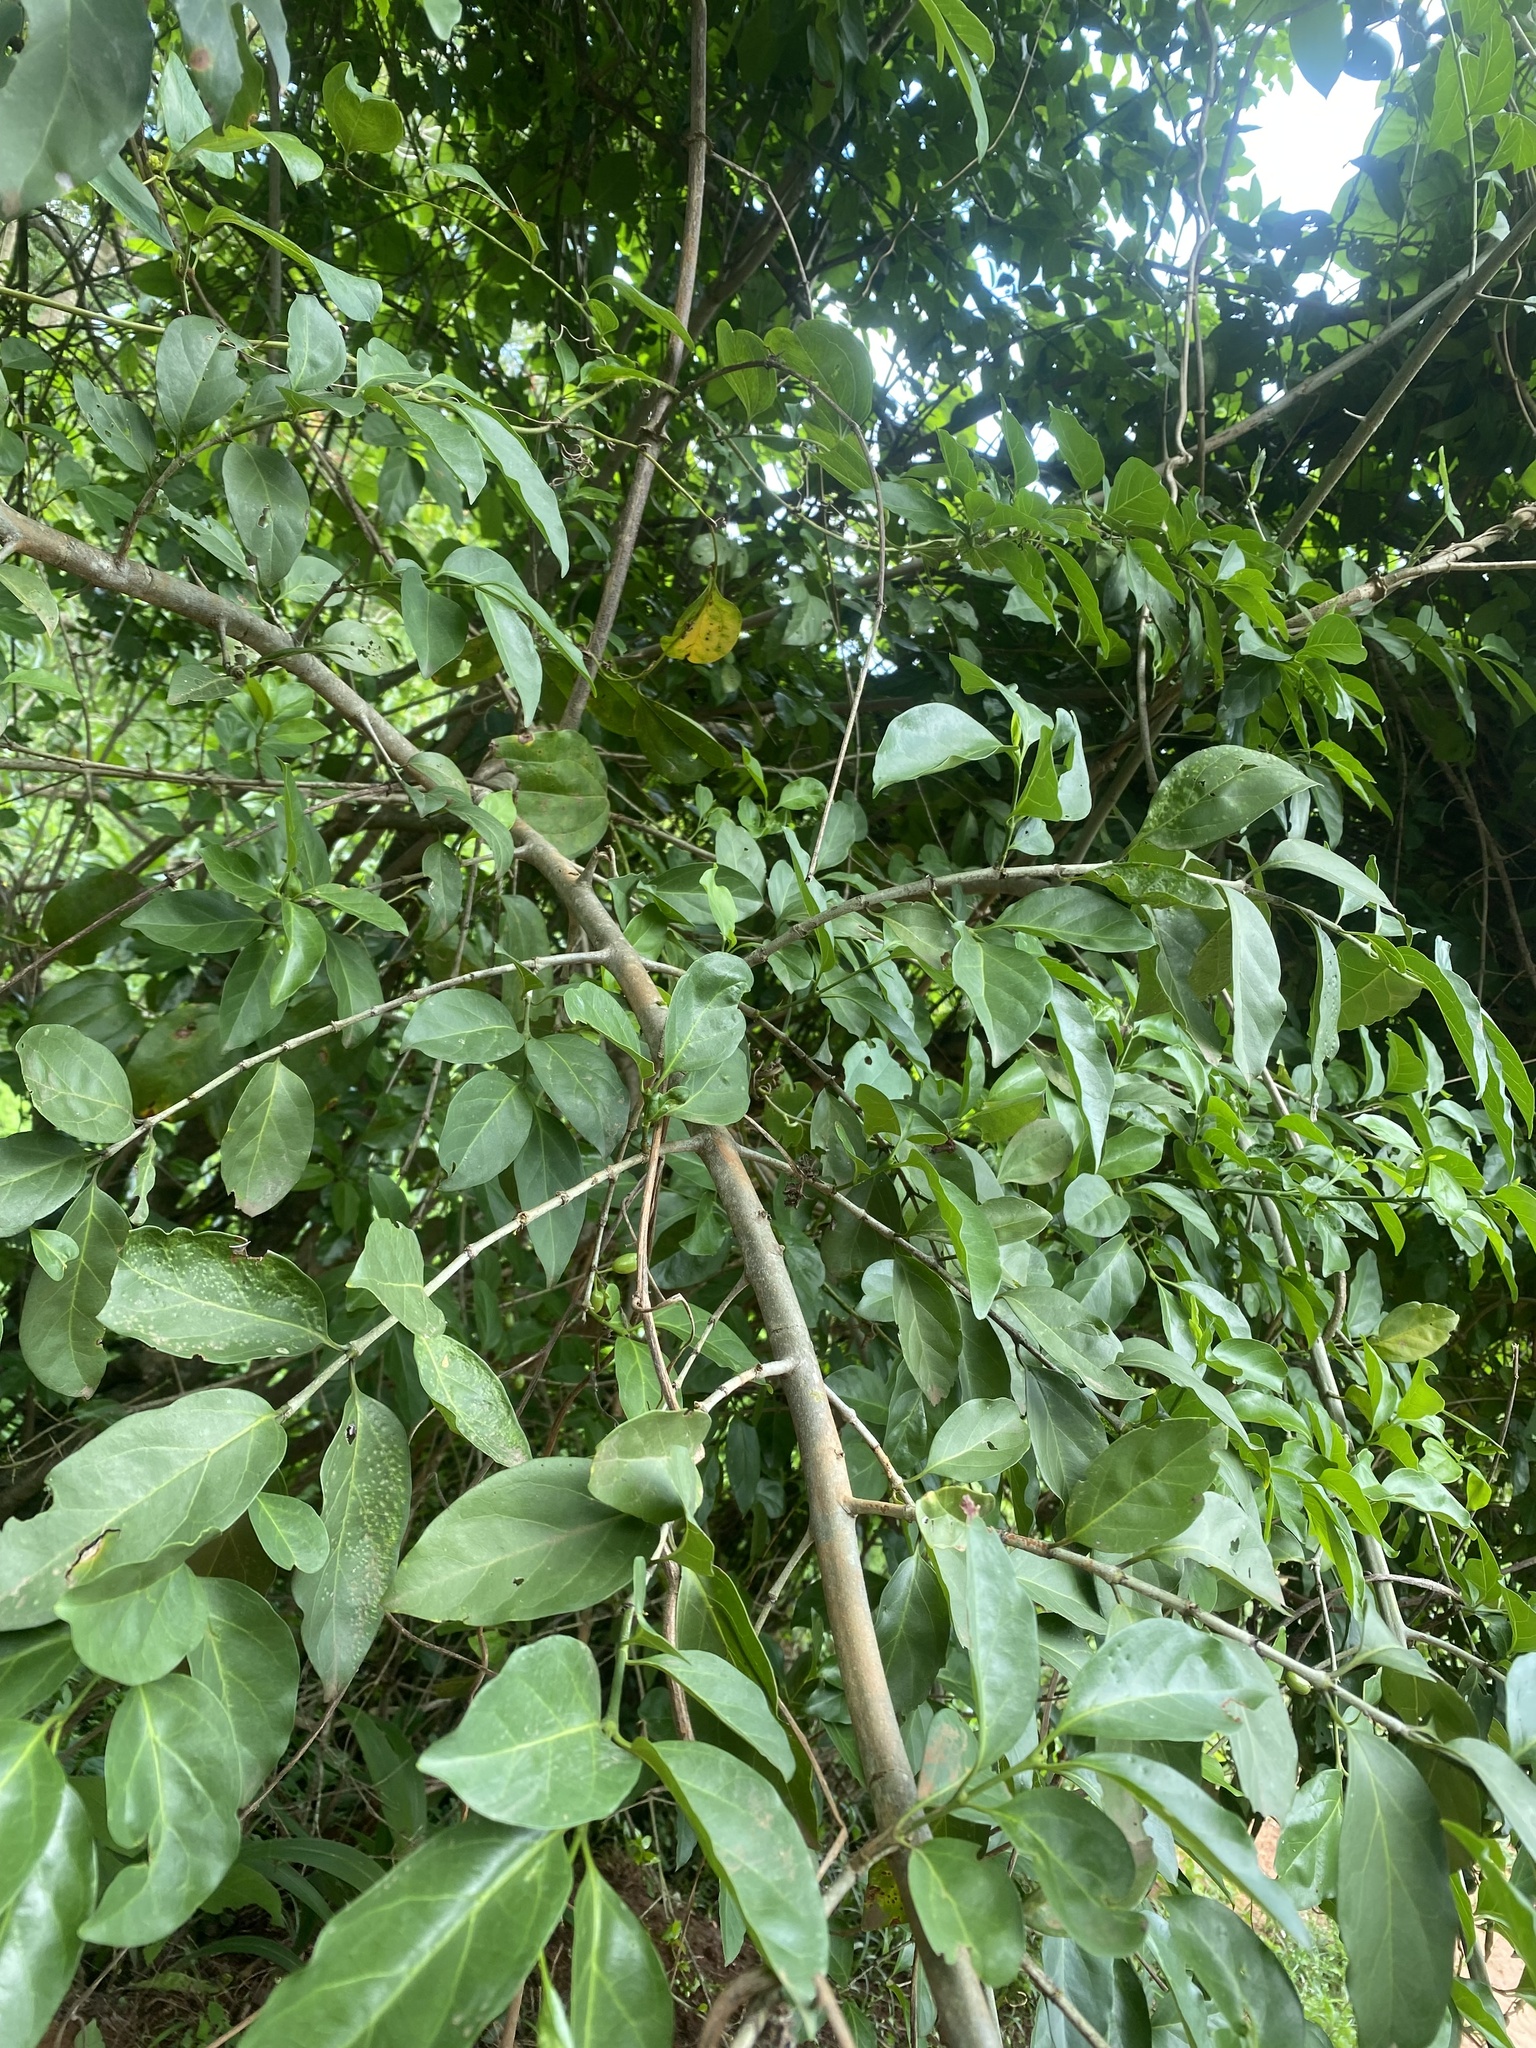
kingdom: Plantae
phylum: Tracheophyta
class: Magnoliopsida
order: Gentianales
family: Rubiaceae
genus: Canthium
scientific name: Canthium inerme
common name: Unarmed turkey-berry
